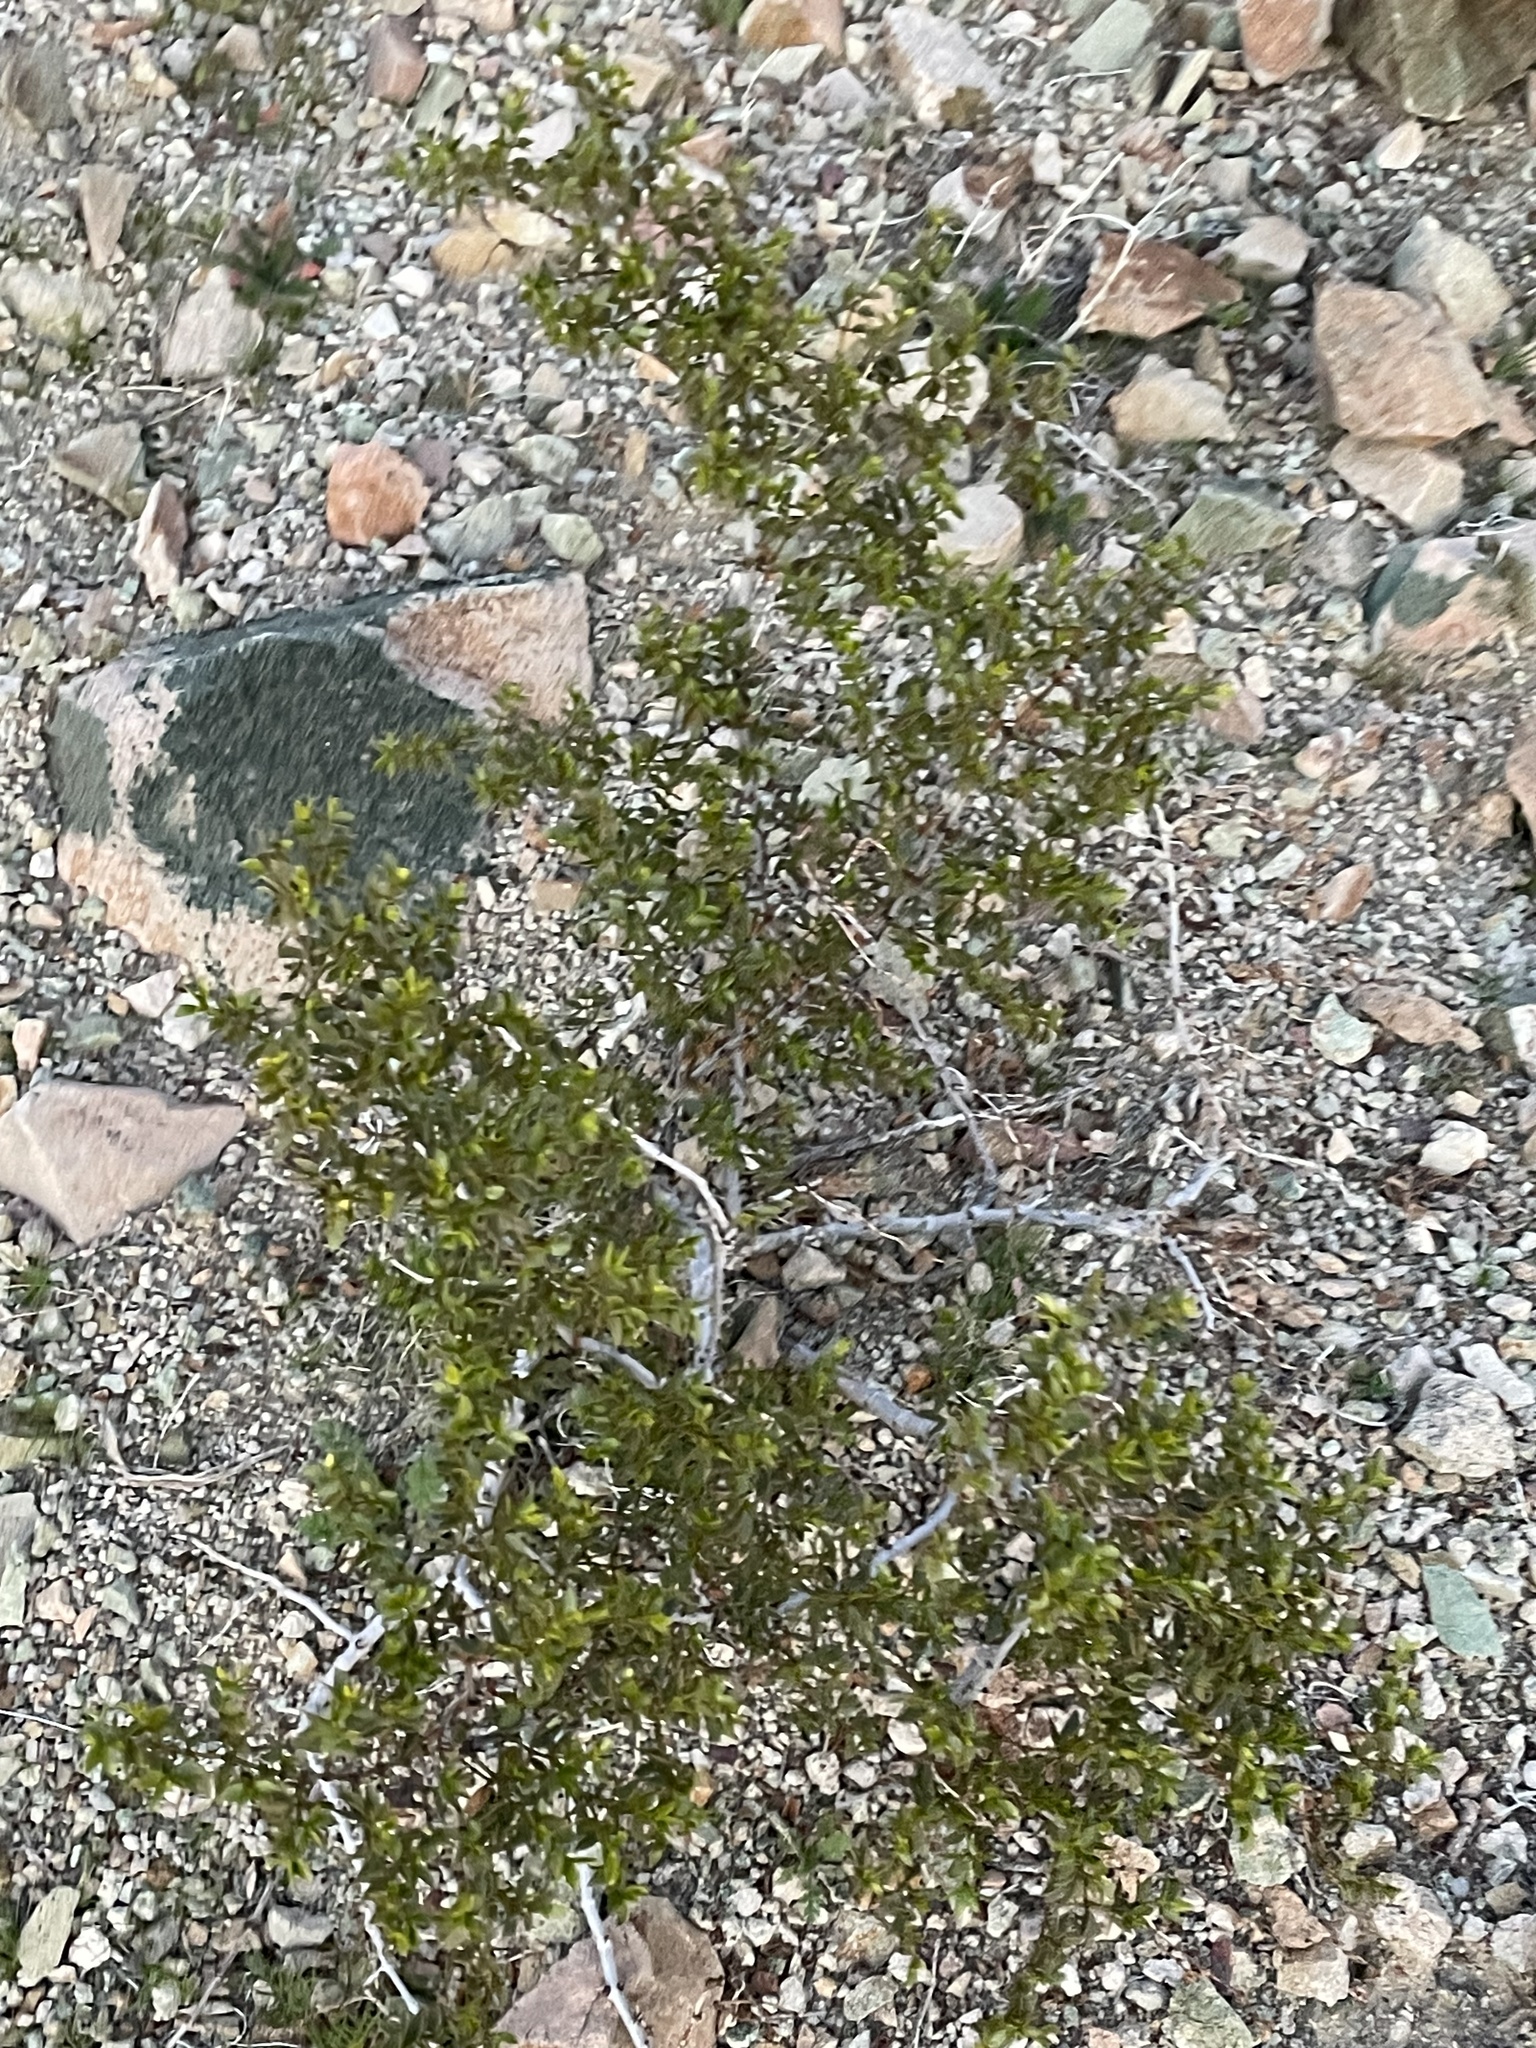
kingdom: Plantae
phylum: Tracheophyta
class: Magnoliopsida
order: Zygophyllales
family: Zygophyllaceae
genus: Larrea
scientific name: Larrea tridentata
